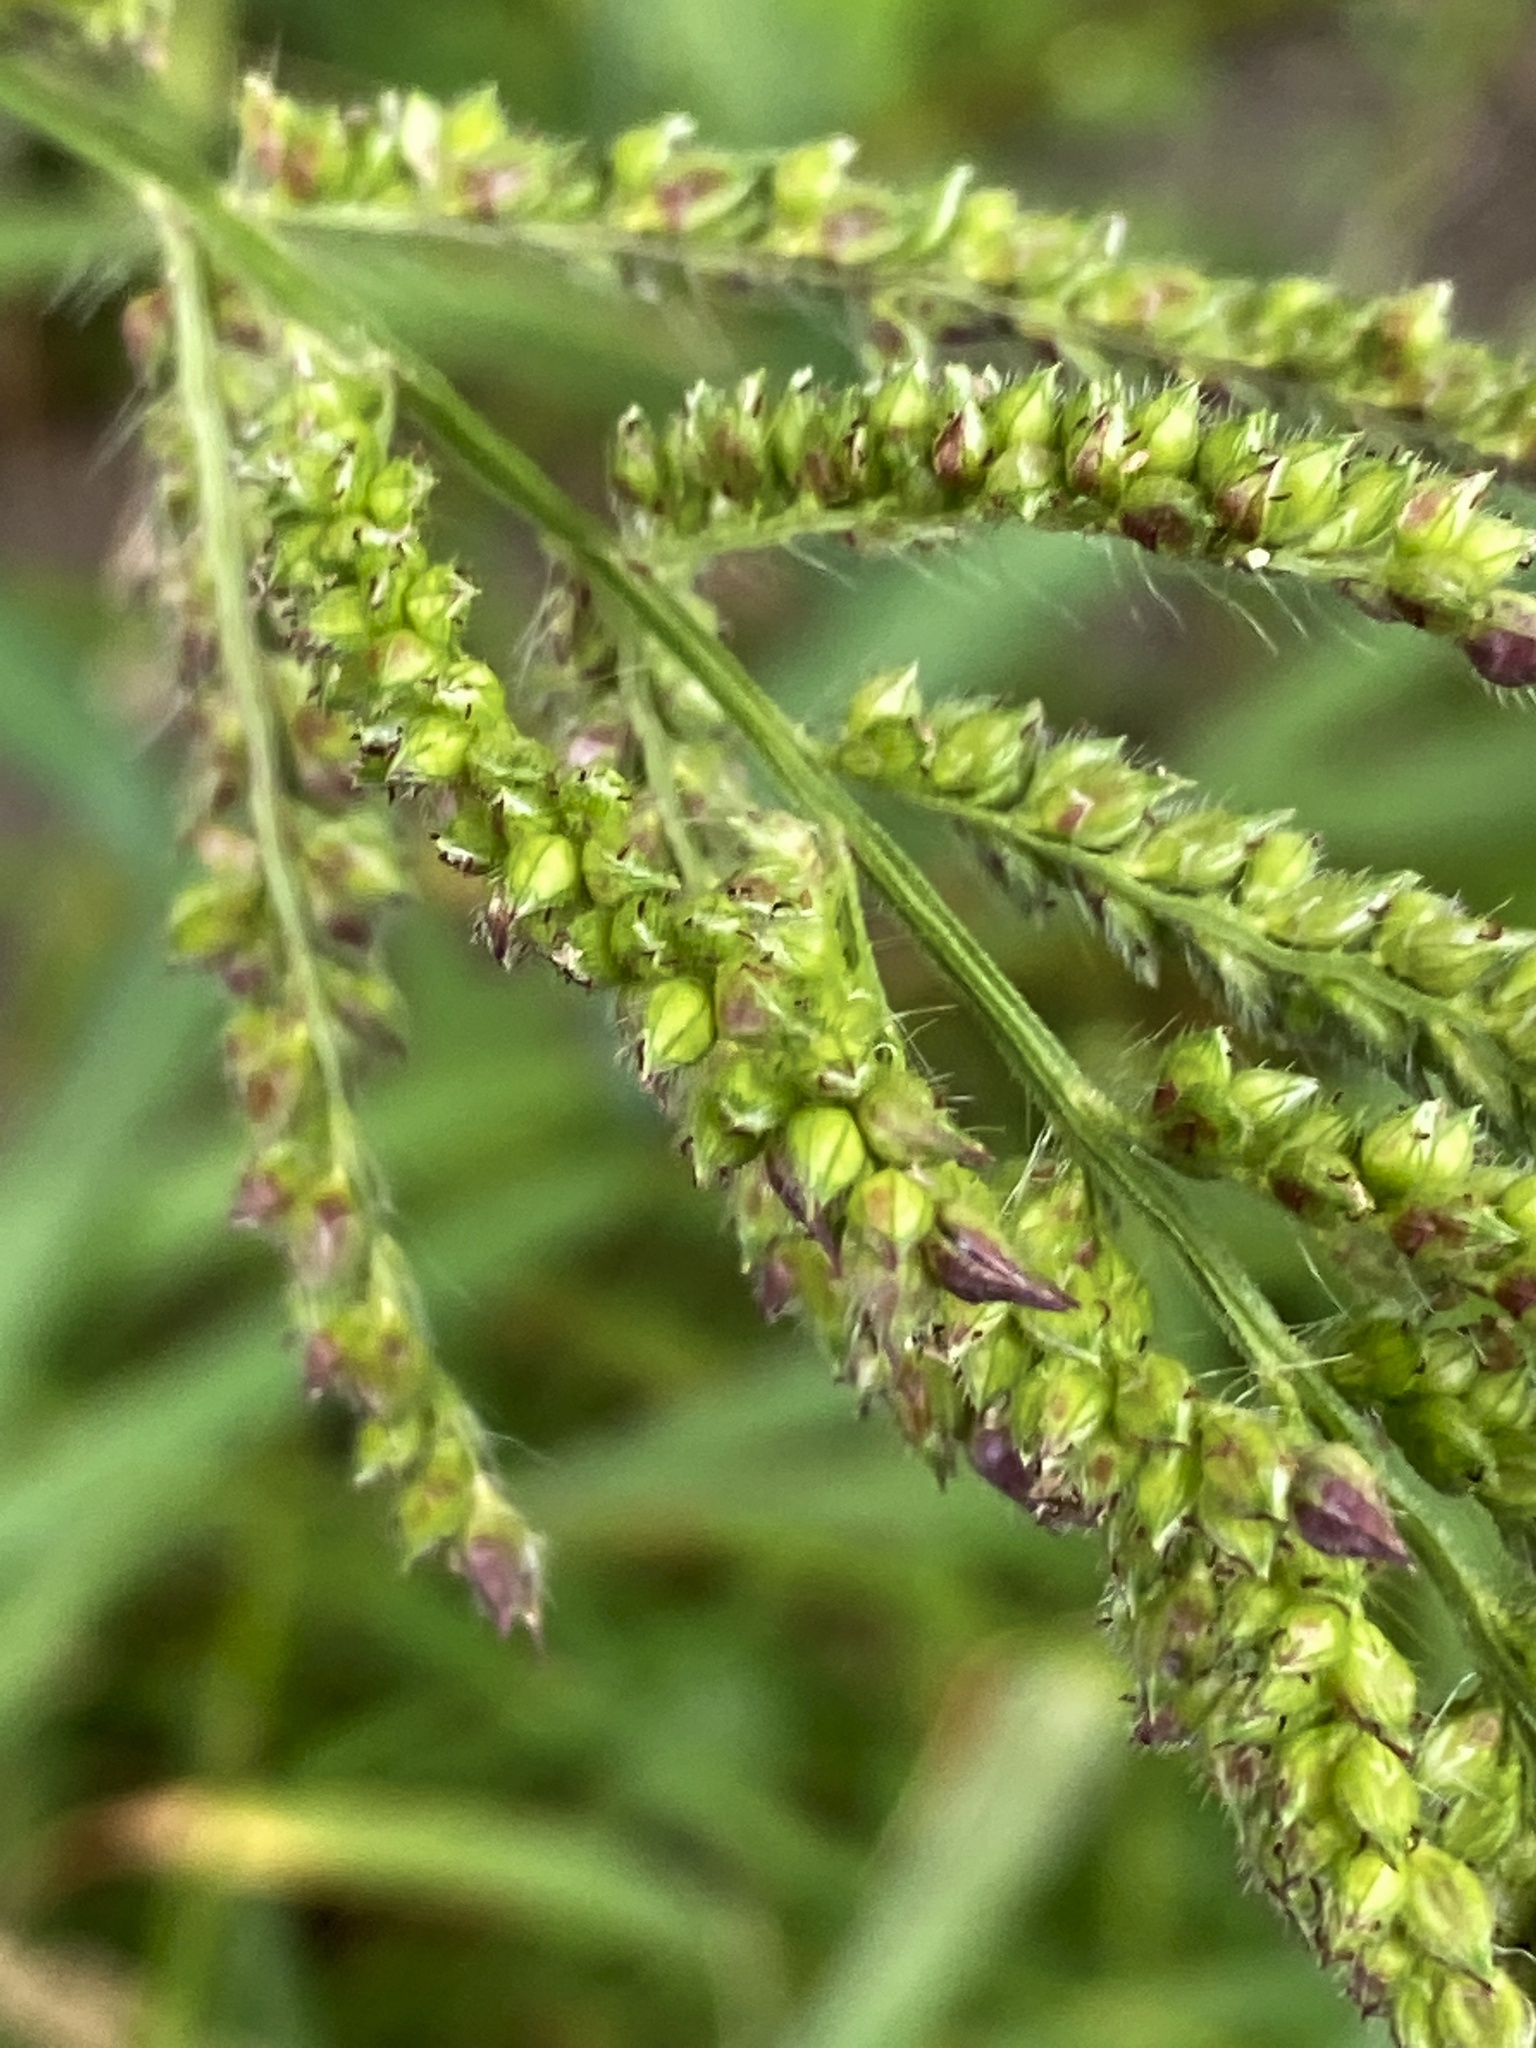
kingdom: Plantae
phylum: Tracheophyta
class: Liliopsida
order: Poales
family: Poaceae
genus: Echinochloa
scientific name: Echinochloa crus-galli
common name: Cockspur
